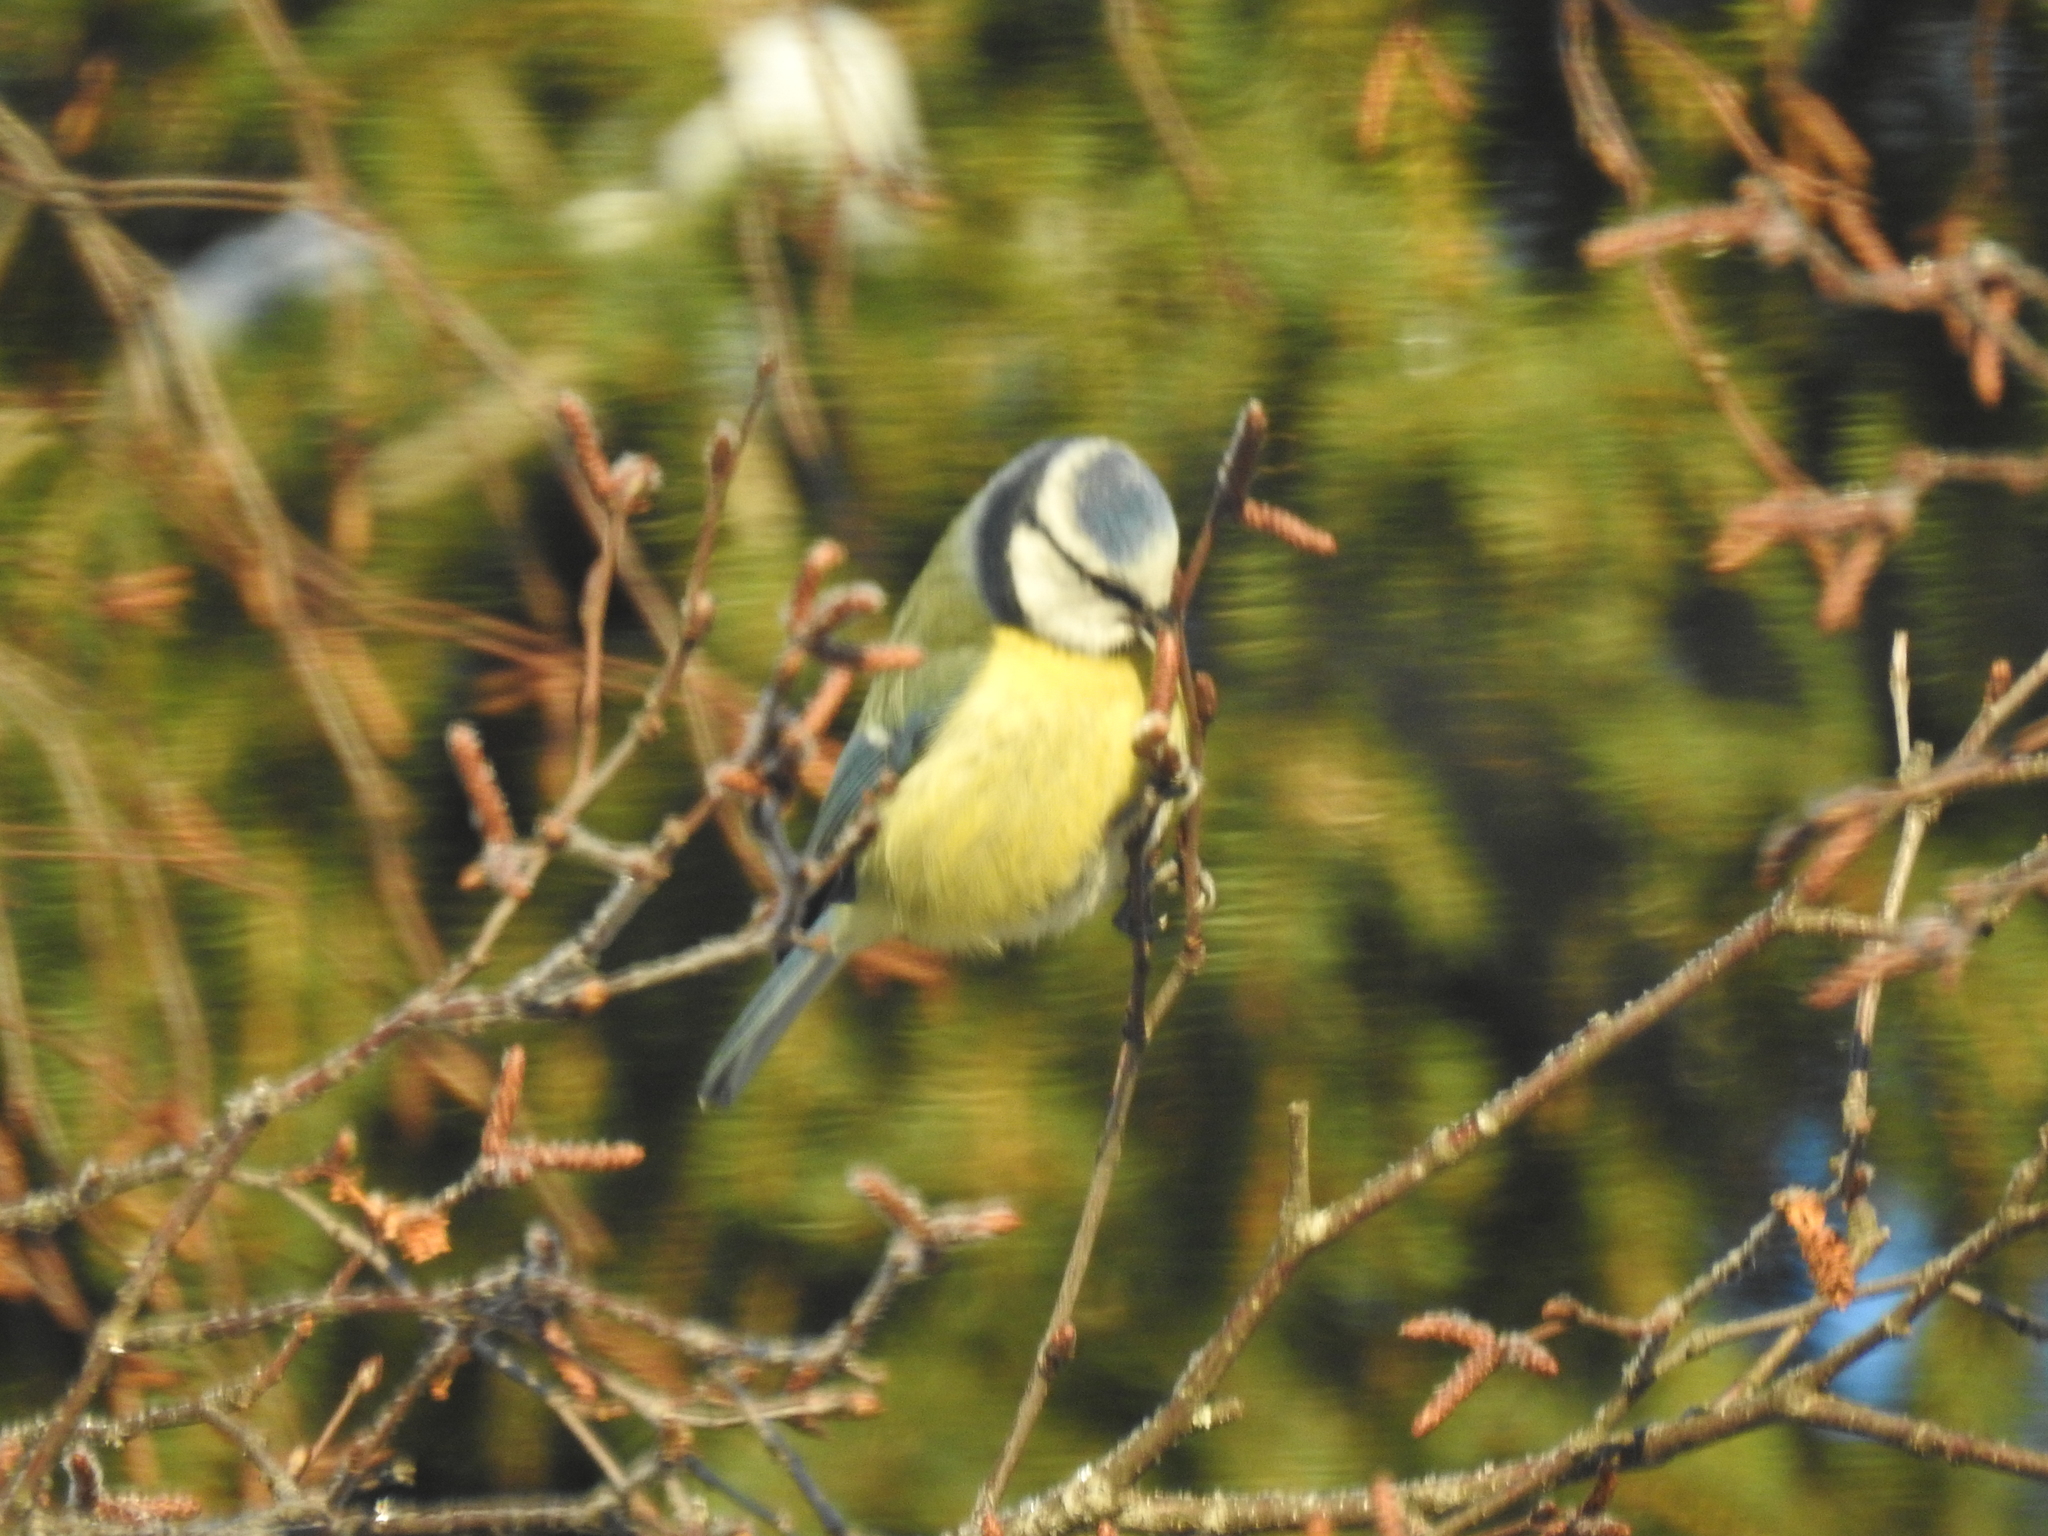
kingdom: Animalia
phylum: Chordata
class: Aves
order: Passeriformes
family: Paridae
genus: Cyanistes
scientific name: Cyanistes caeruleus
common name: Eurasian blue tit
